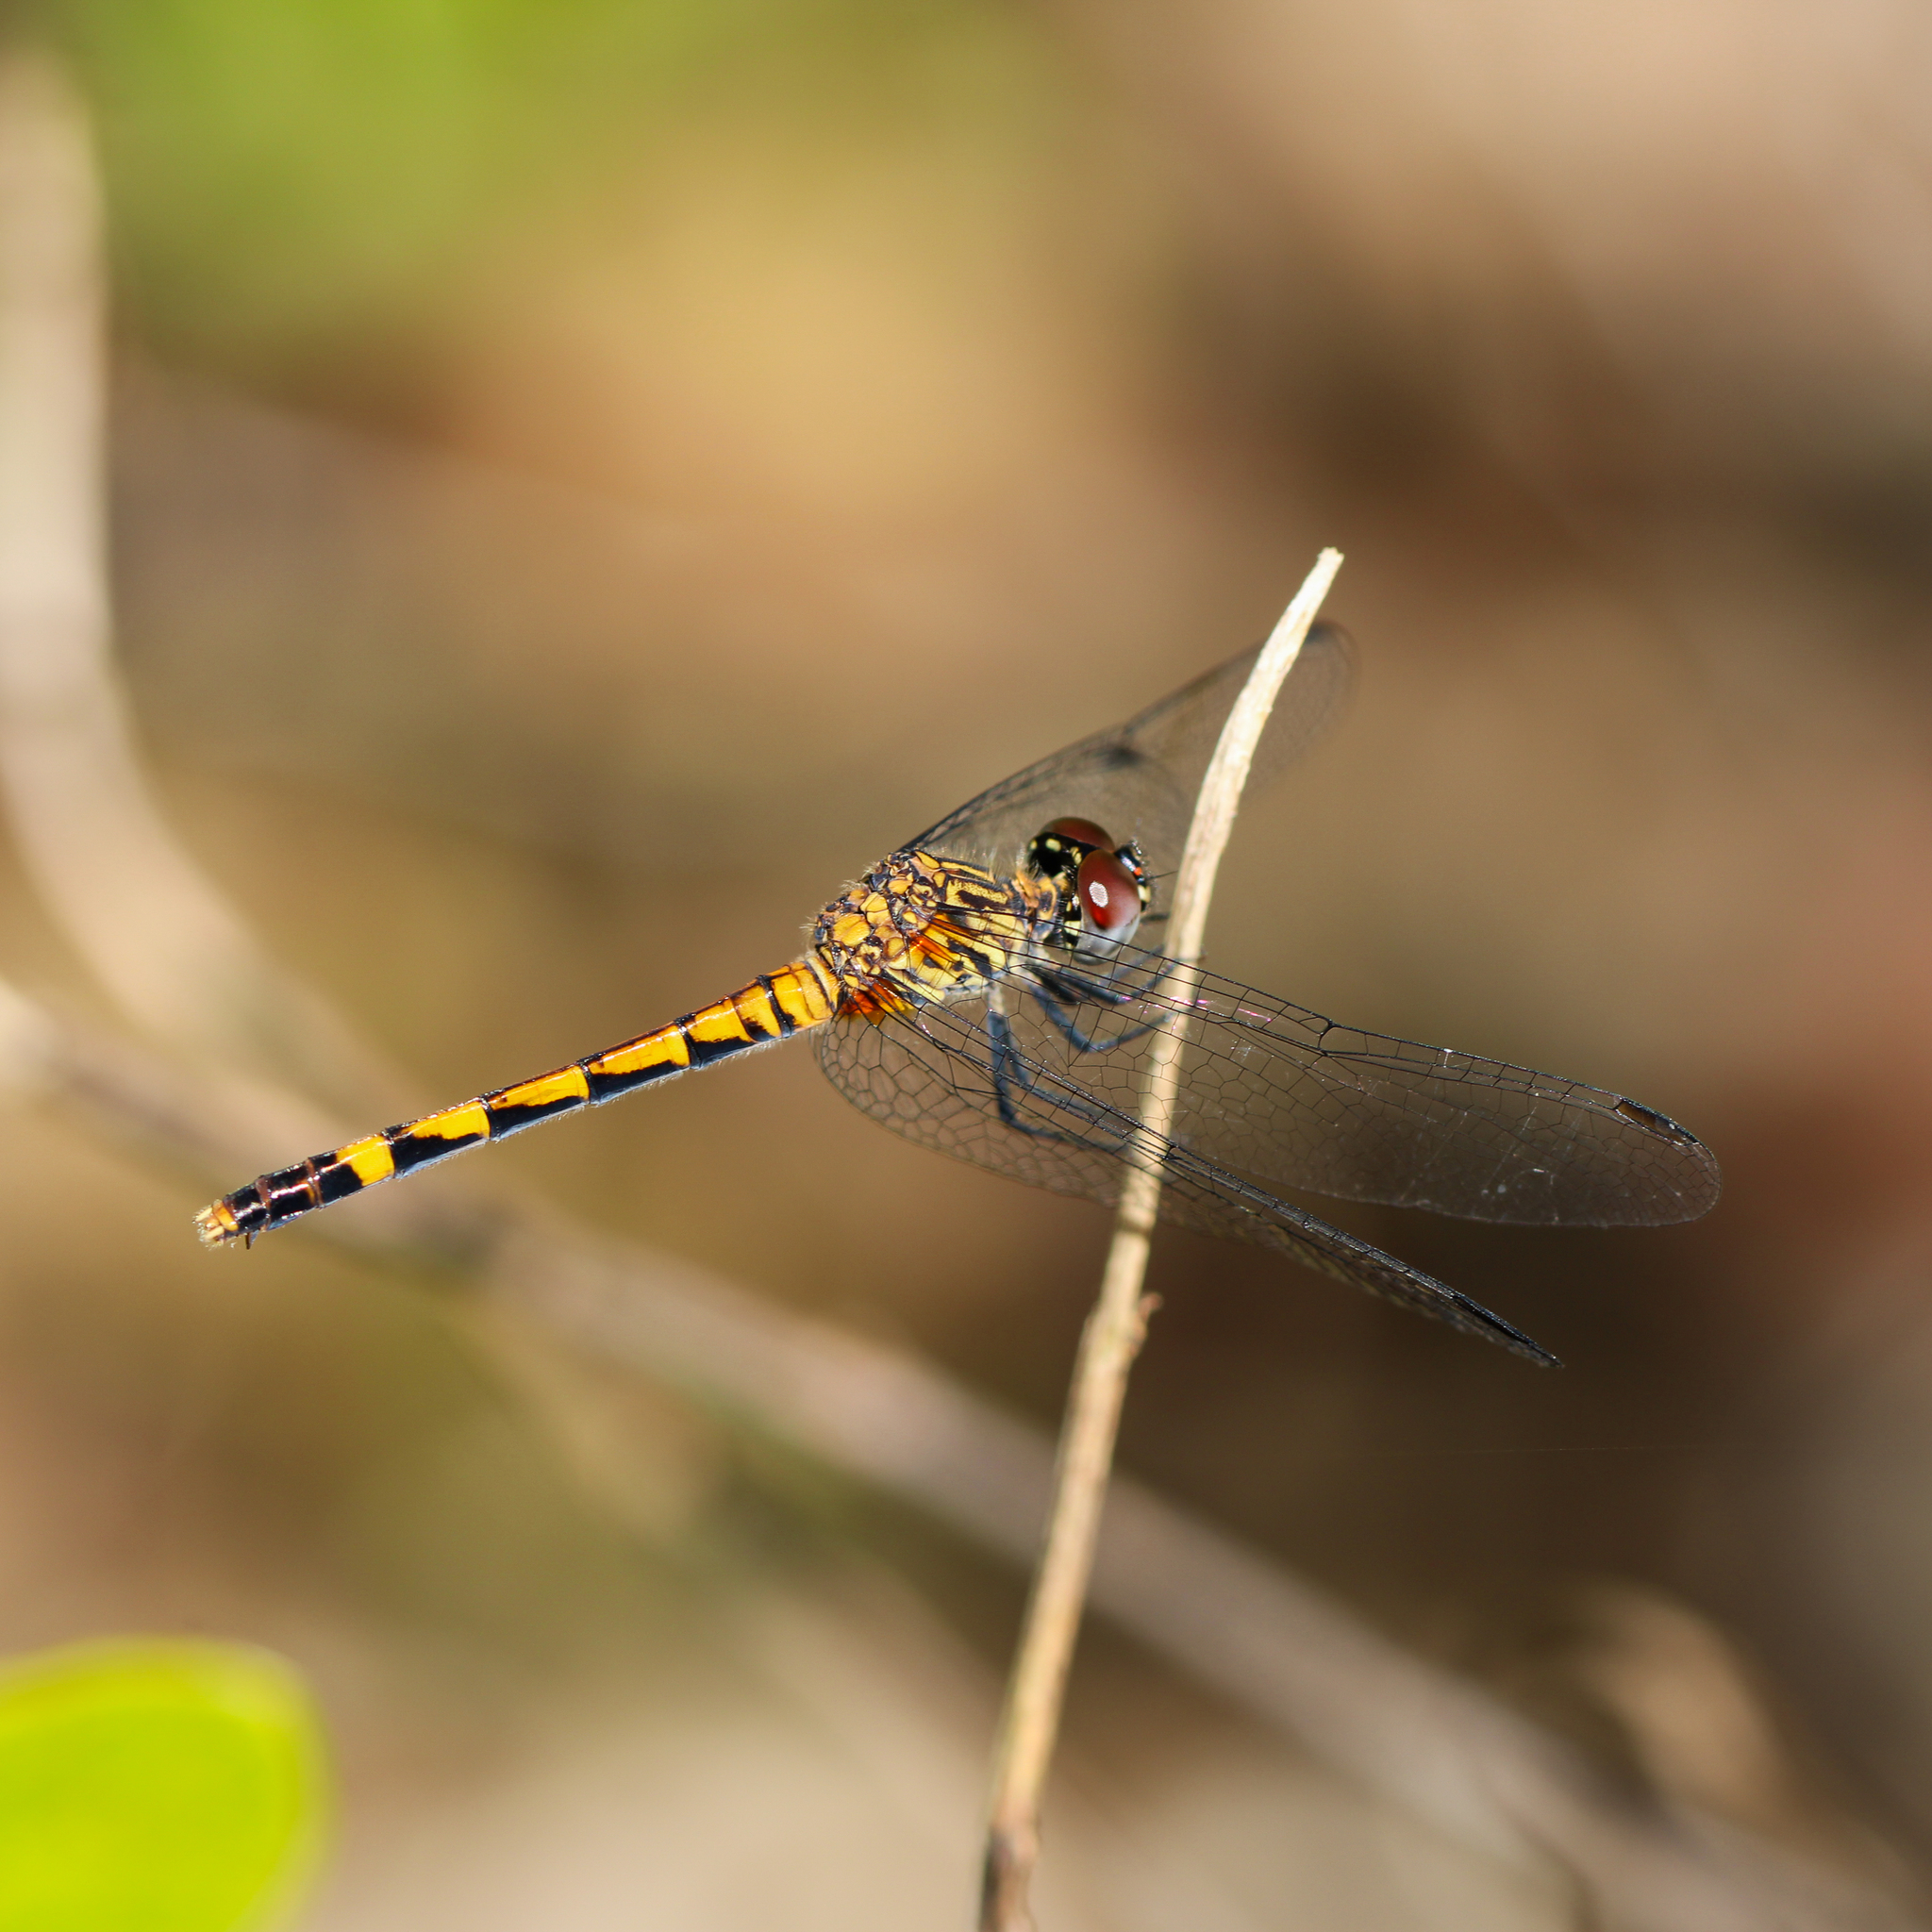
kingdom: Animalia
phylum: Arthropoda
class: Insecta
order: Odonata
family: Libellulidae
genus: Erythrodiplax
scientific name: Erythrodiplax berenice
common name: Seaside dragonlet
